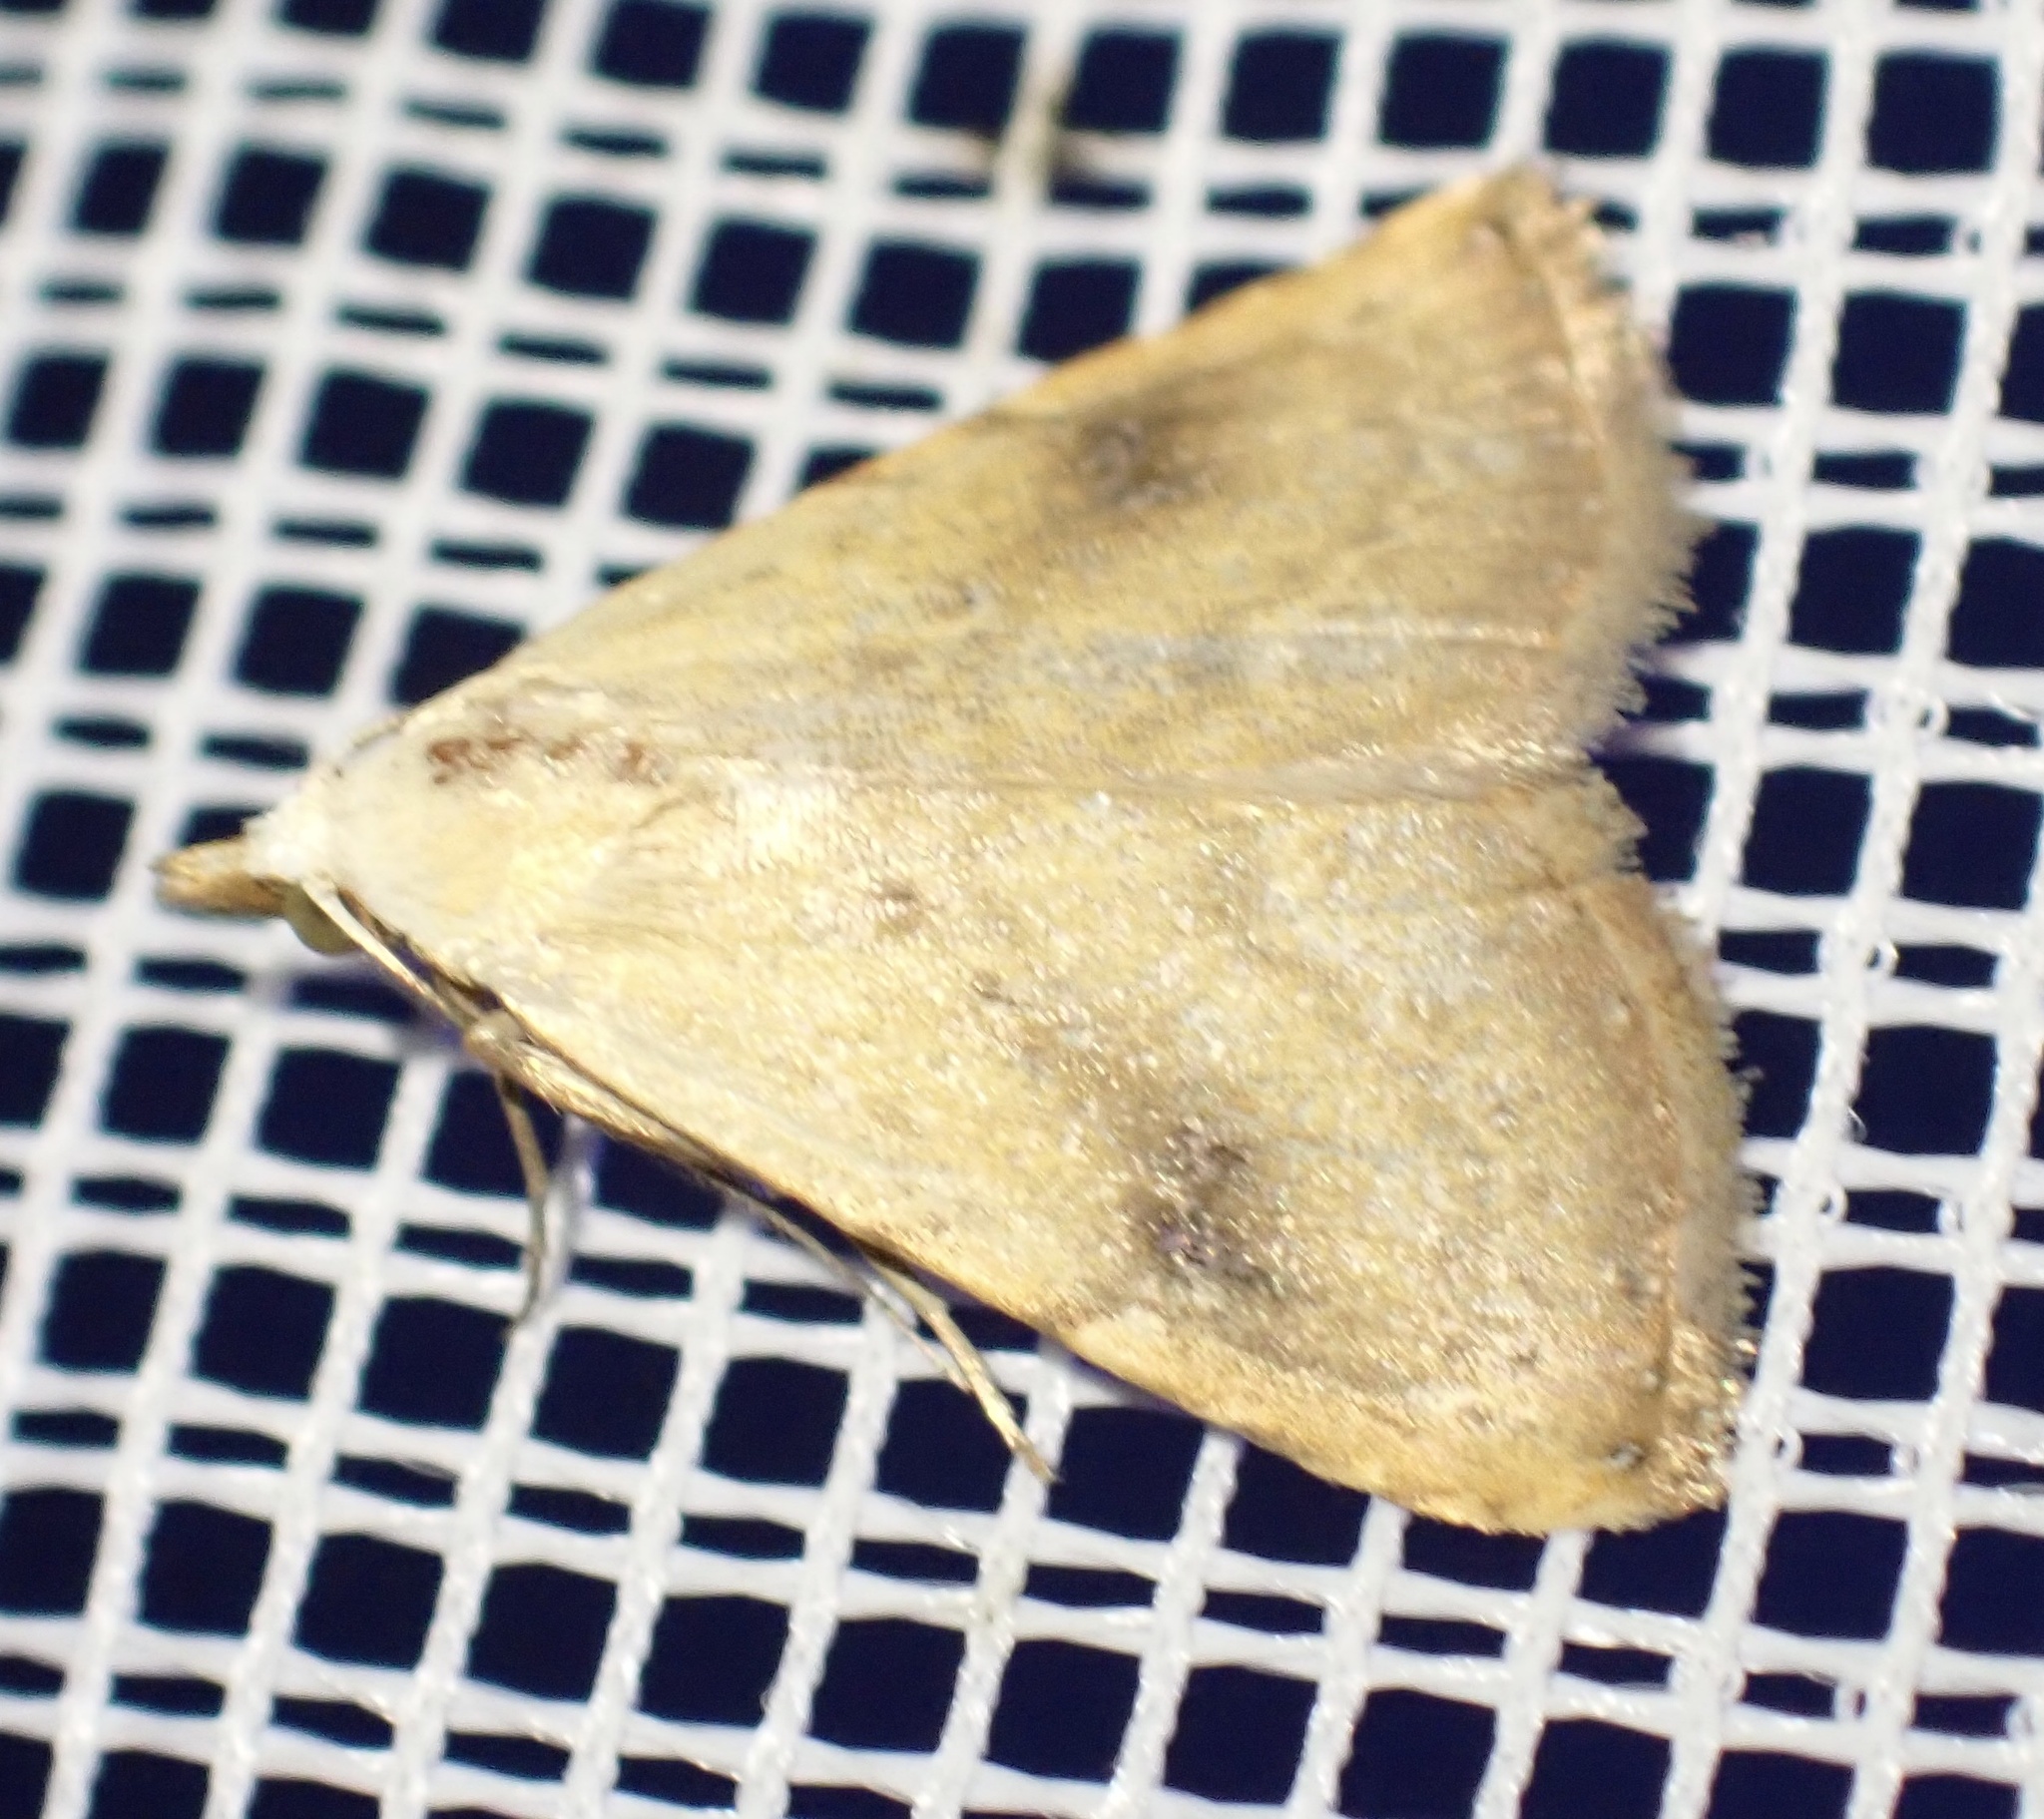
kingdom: Animalia
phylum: Arthropoda
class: Insecta
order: Lepidoptera
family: Erebidae
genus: Rivula
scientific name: Rivula sericealis
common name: Straw dot
